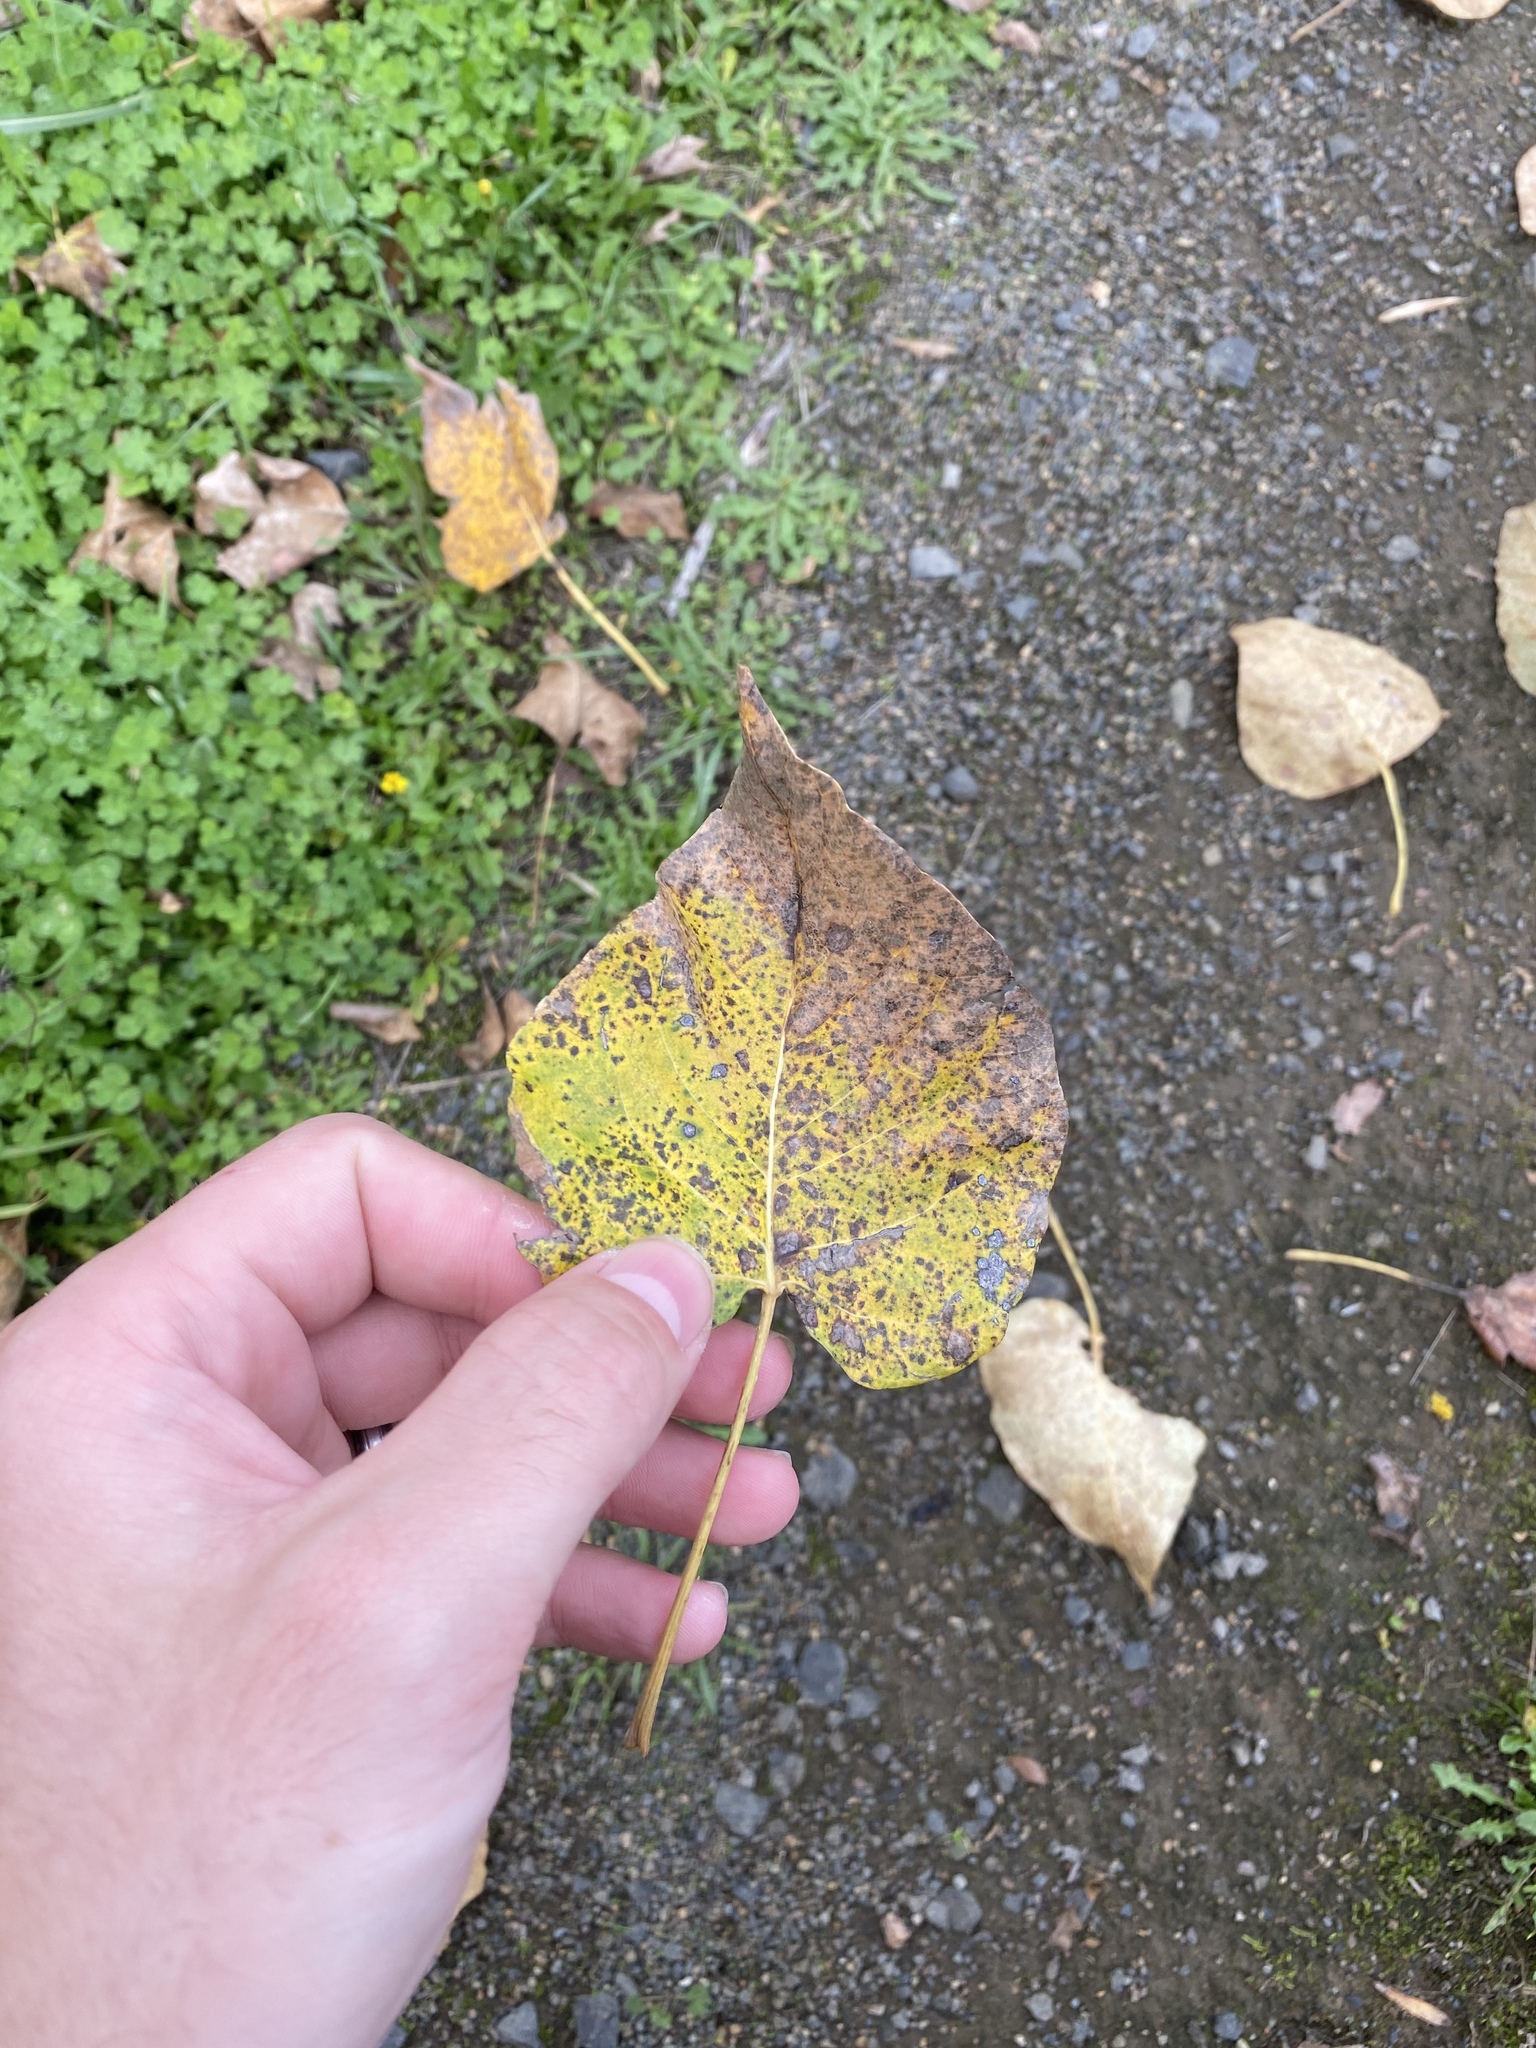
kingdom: Plantae
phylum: Tracheophyta
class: Magnoliopsida
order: Malpighiales
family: Salicaceae
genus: Populus
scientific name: Populus trichocarpa
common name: Black cottonwood
